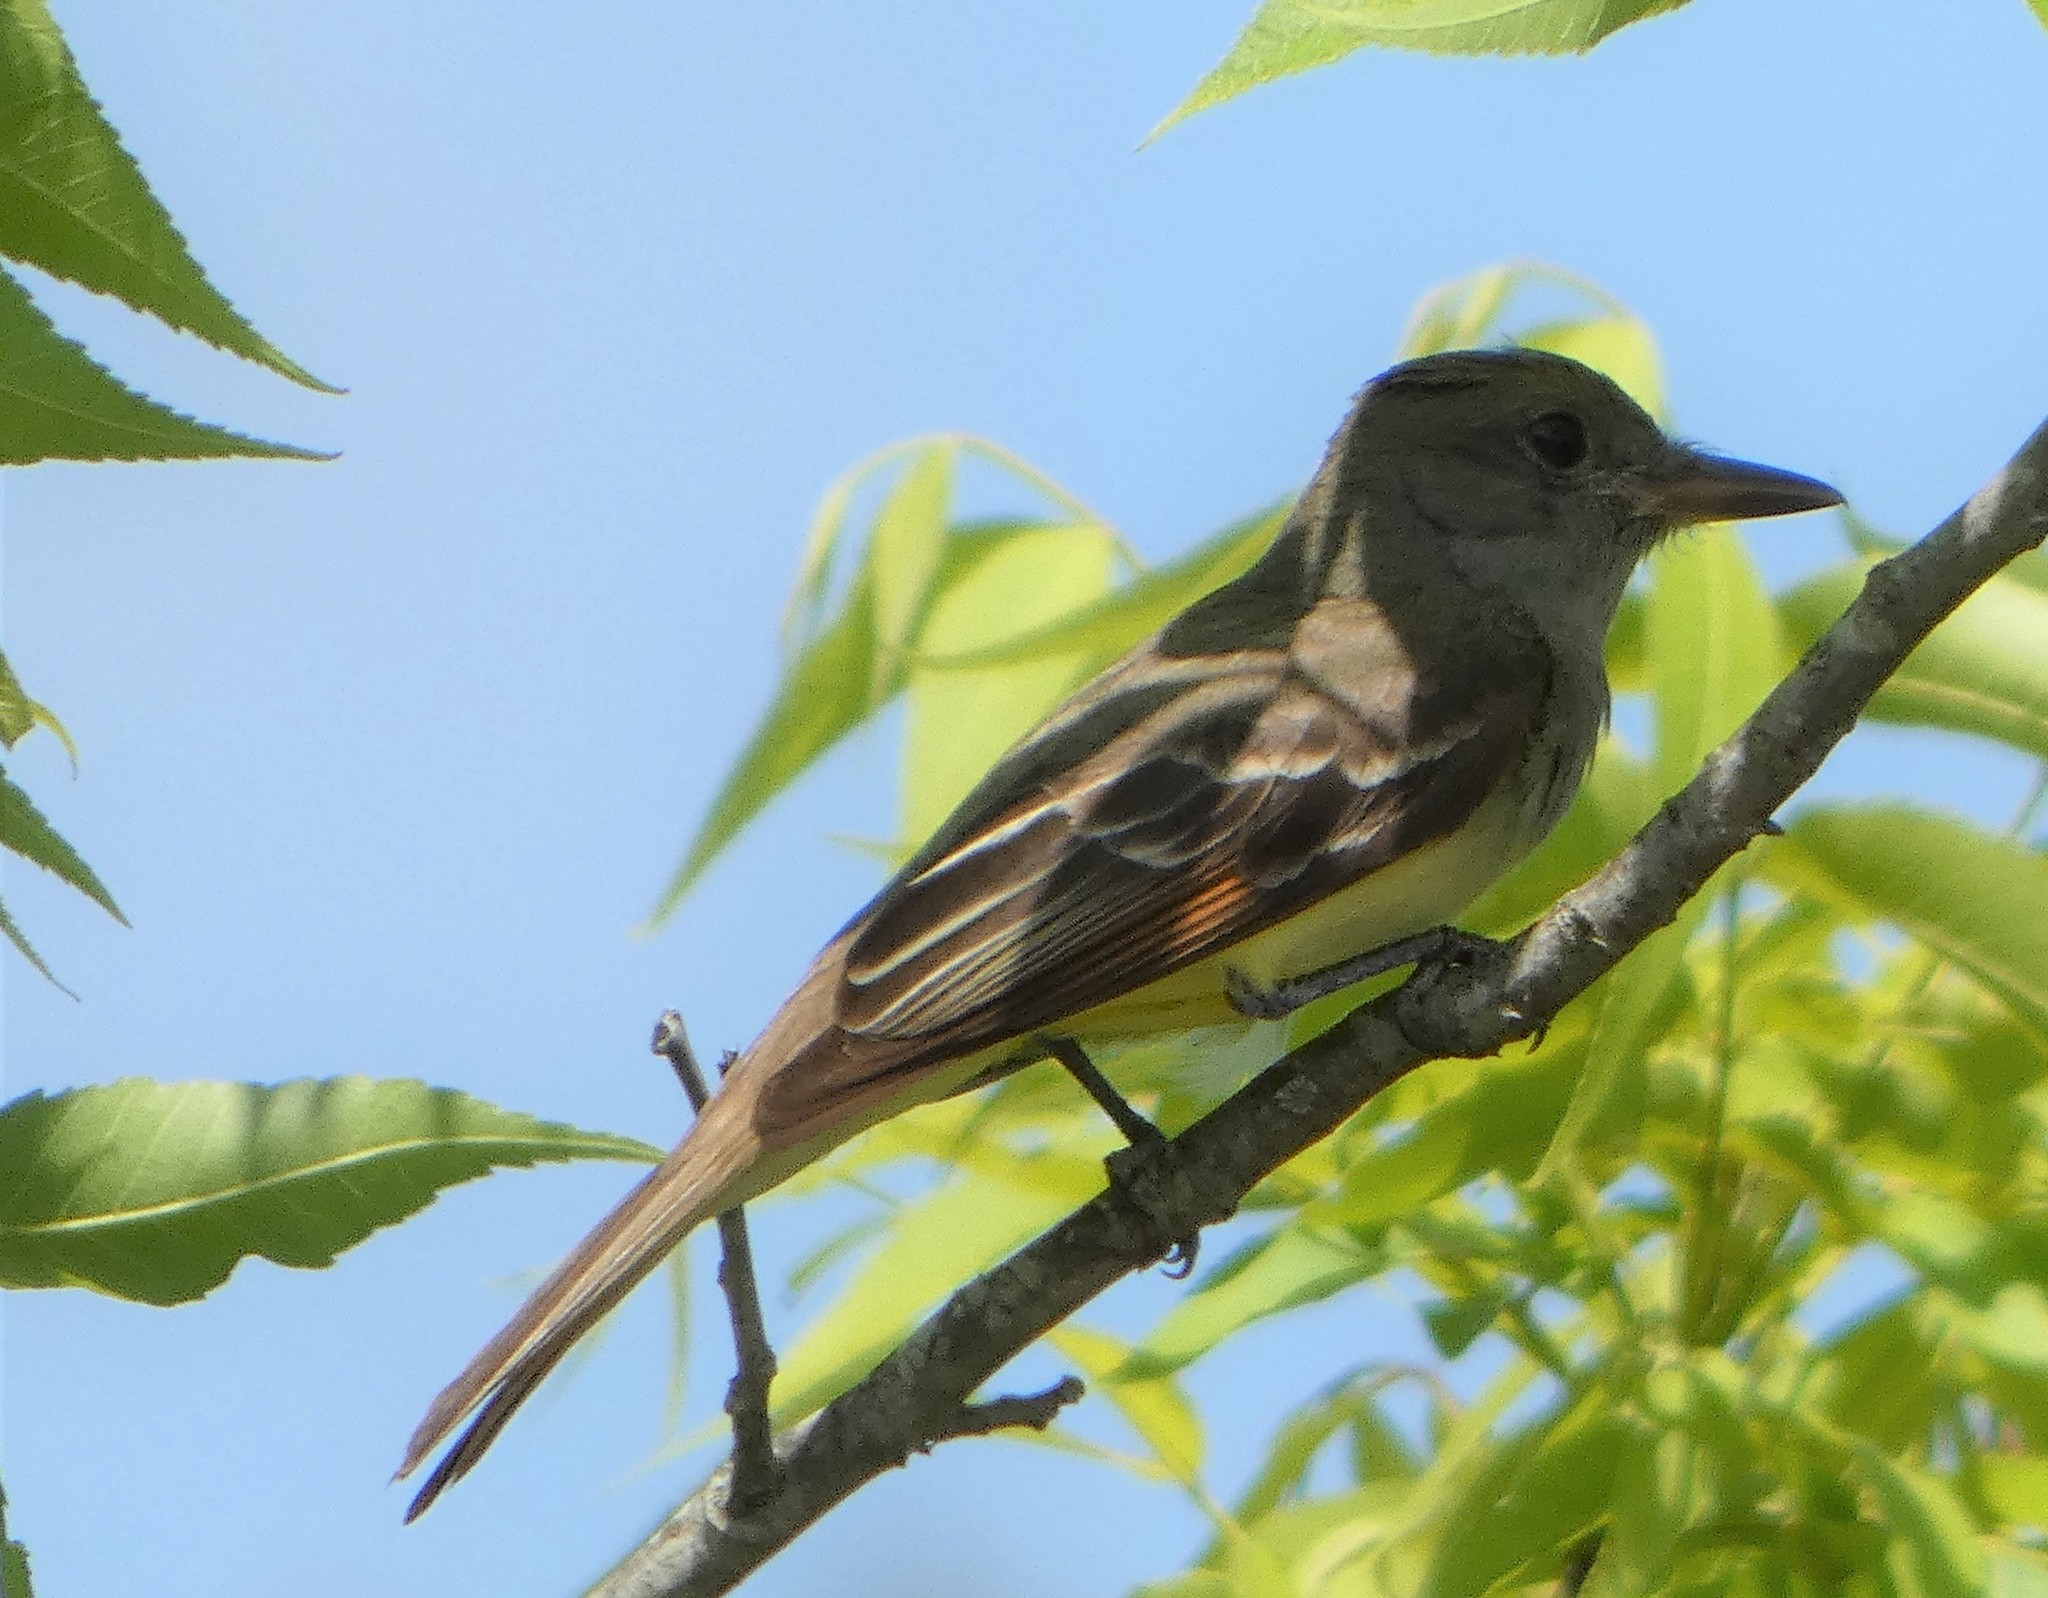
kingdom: Animalia
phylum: Chordata
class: Aves
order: Passeriformes
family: Tyrannidae
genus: Myiarchus
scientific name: Myiarchus crinitus
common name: Great crested flycatcher
